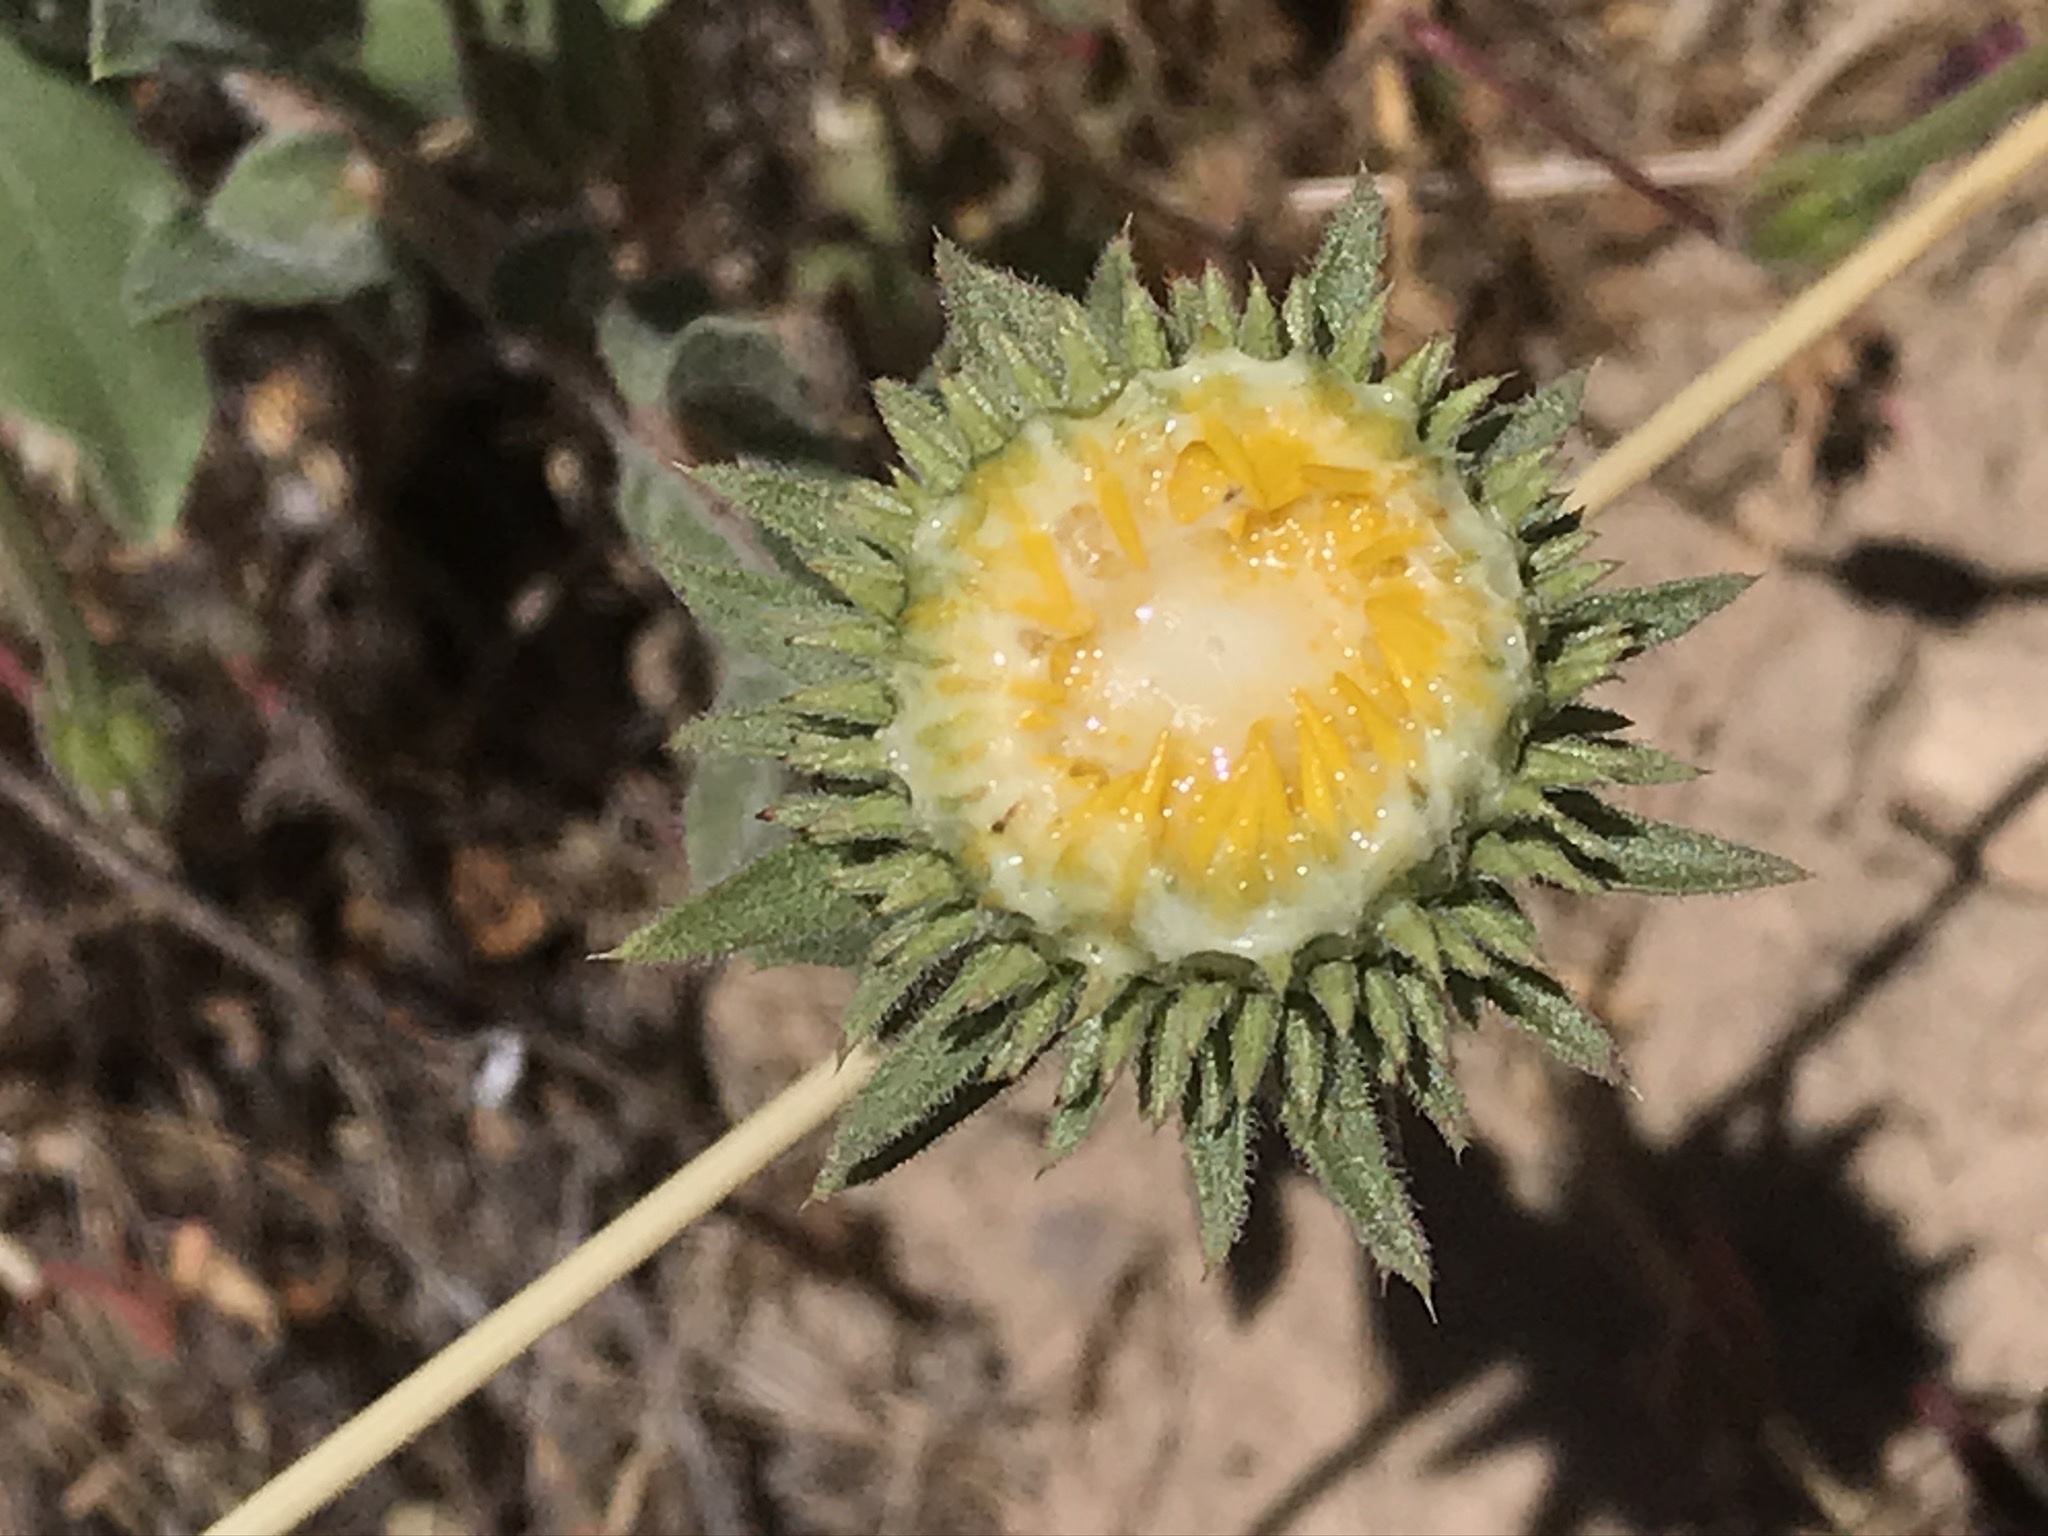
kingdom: Plantae
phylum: Tracheophyta
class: Magnoliopsida
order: Asterales
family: Asteraceae
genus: Grindelia
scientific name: Grindelia hirsutula
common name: Hairy gumweed
